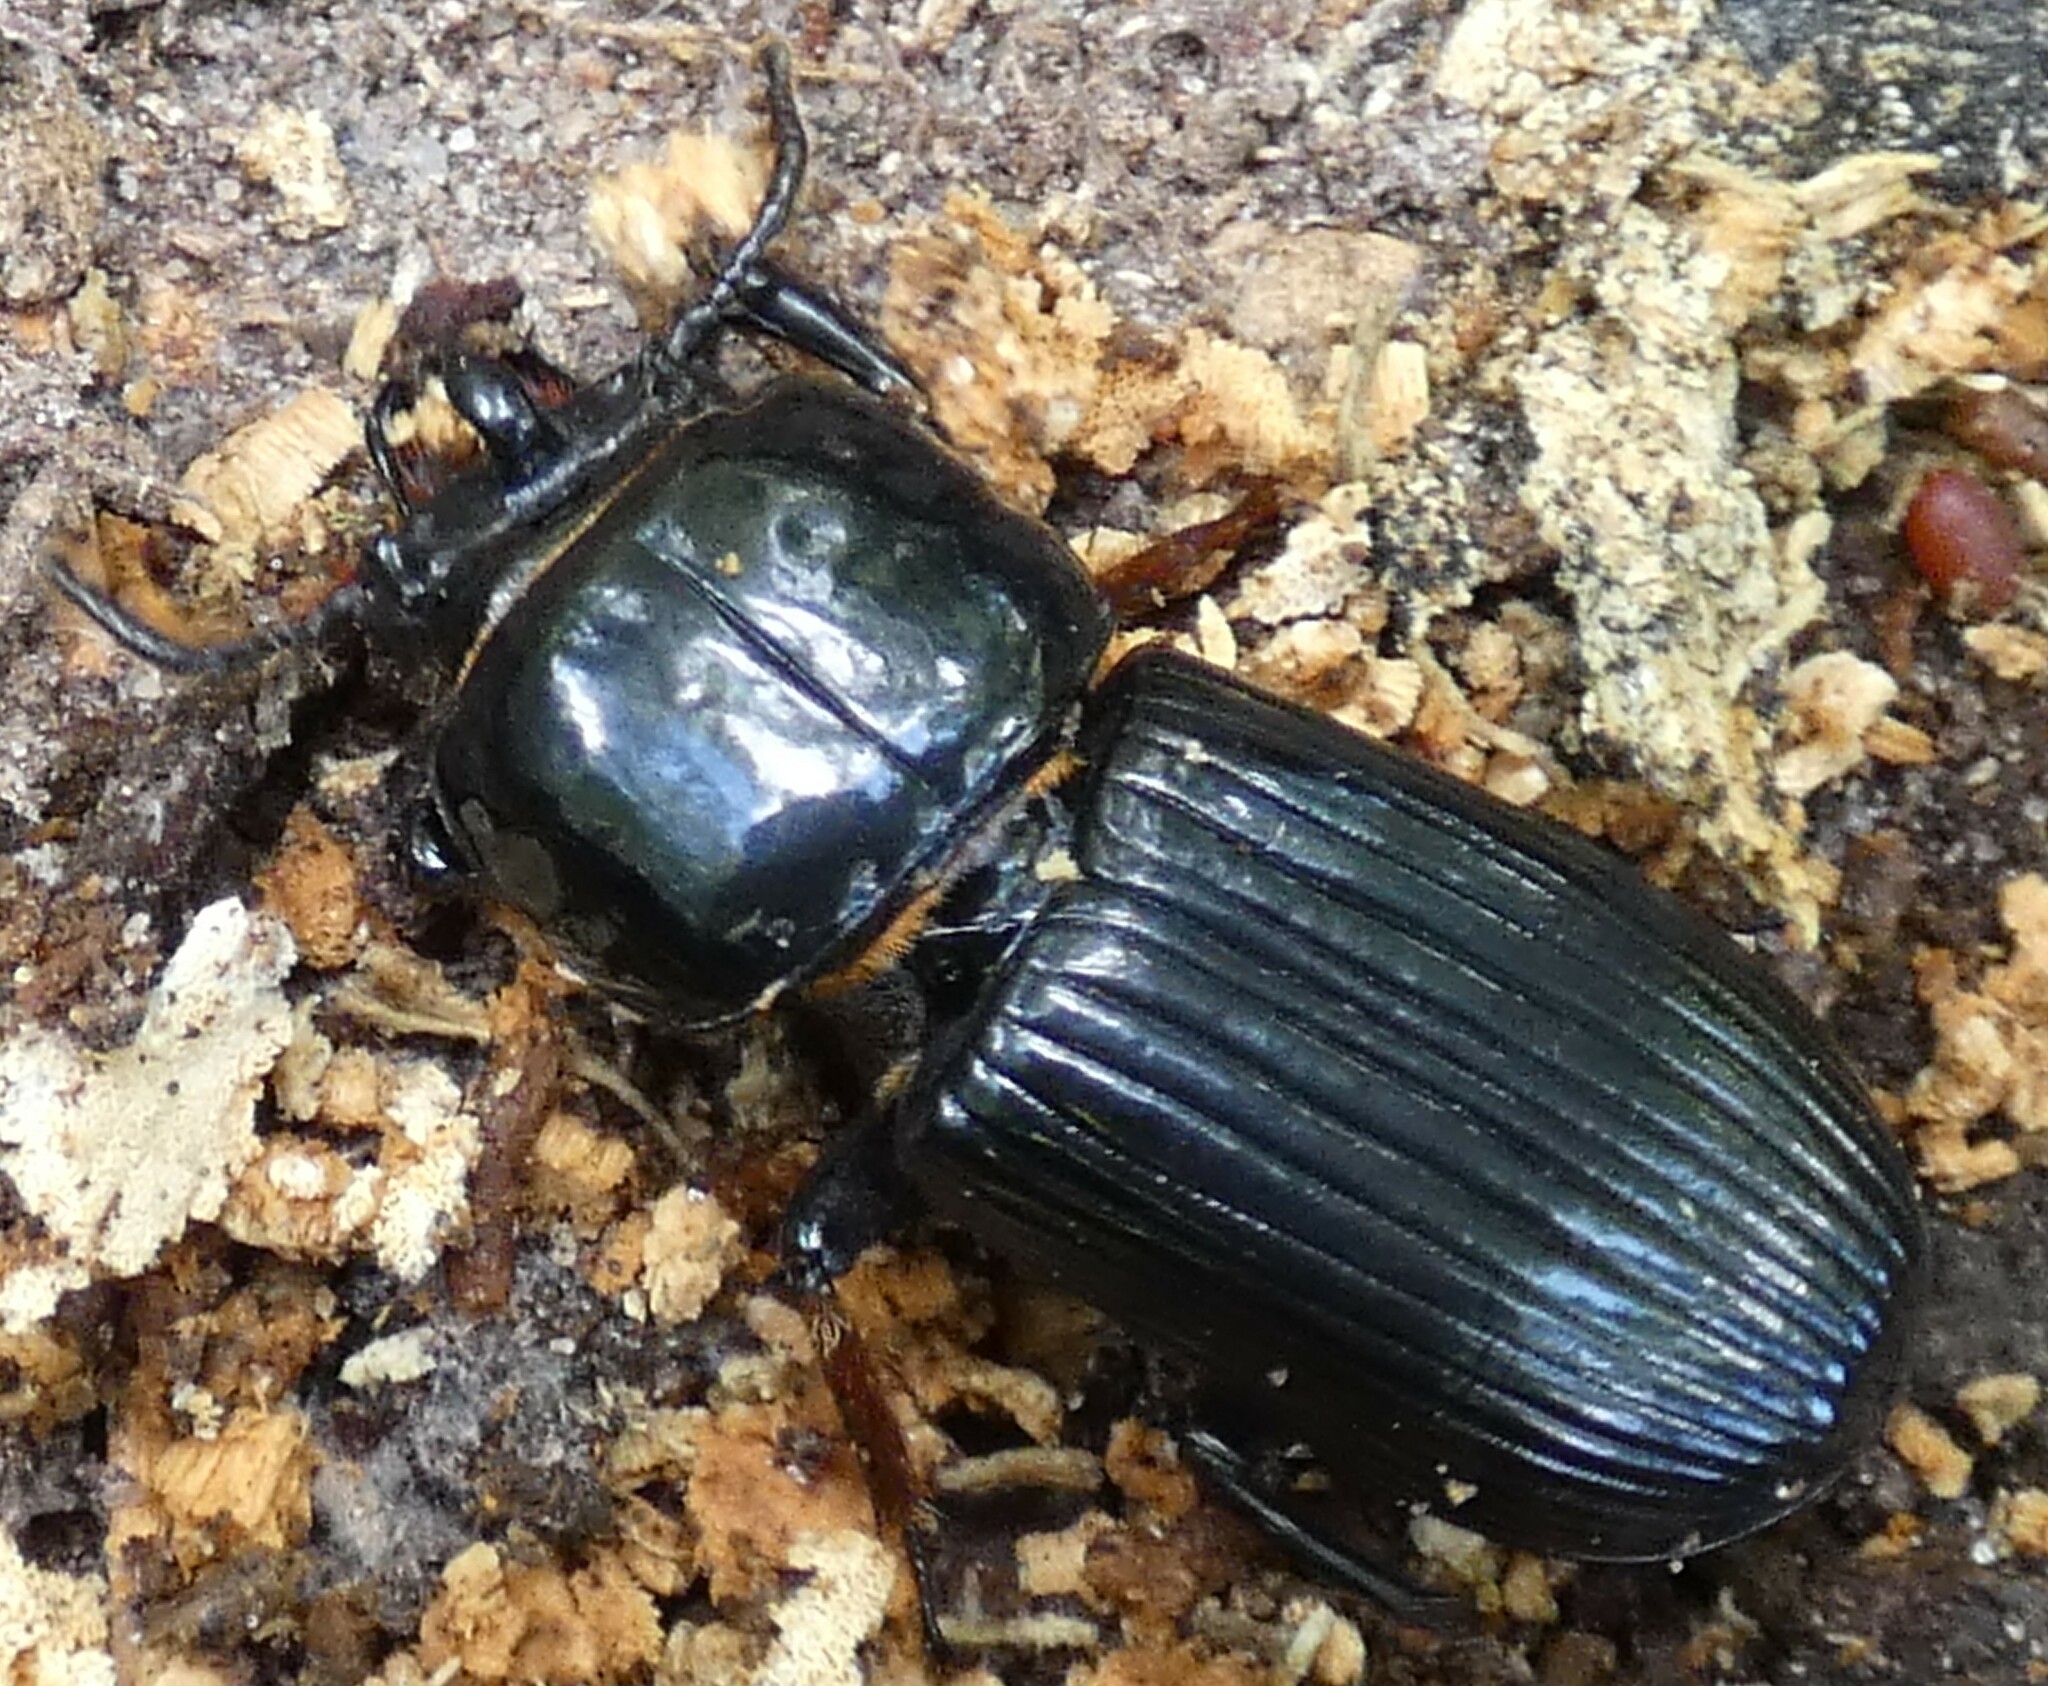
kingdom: Animalia
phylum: Arthropoda
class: Insecta
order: Coleoptera
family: Passalidae
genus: Odontotaenius
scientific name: Odontotaenius disjunctus
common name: Patent leather beetle
